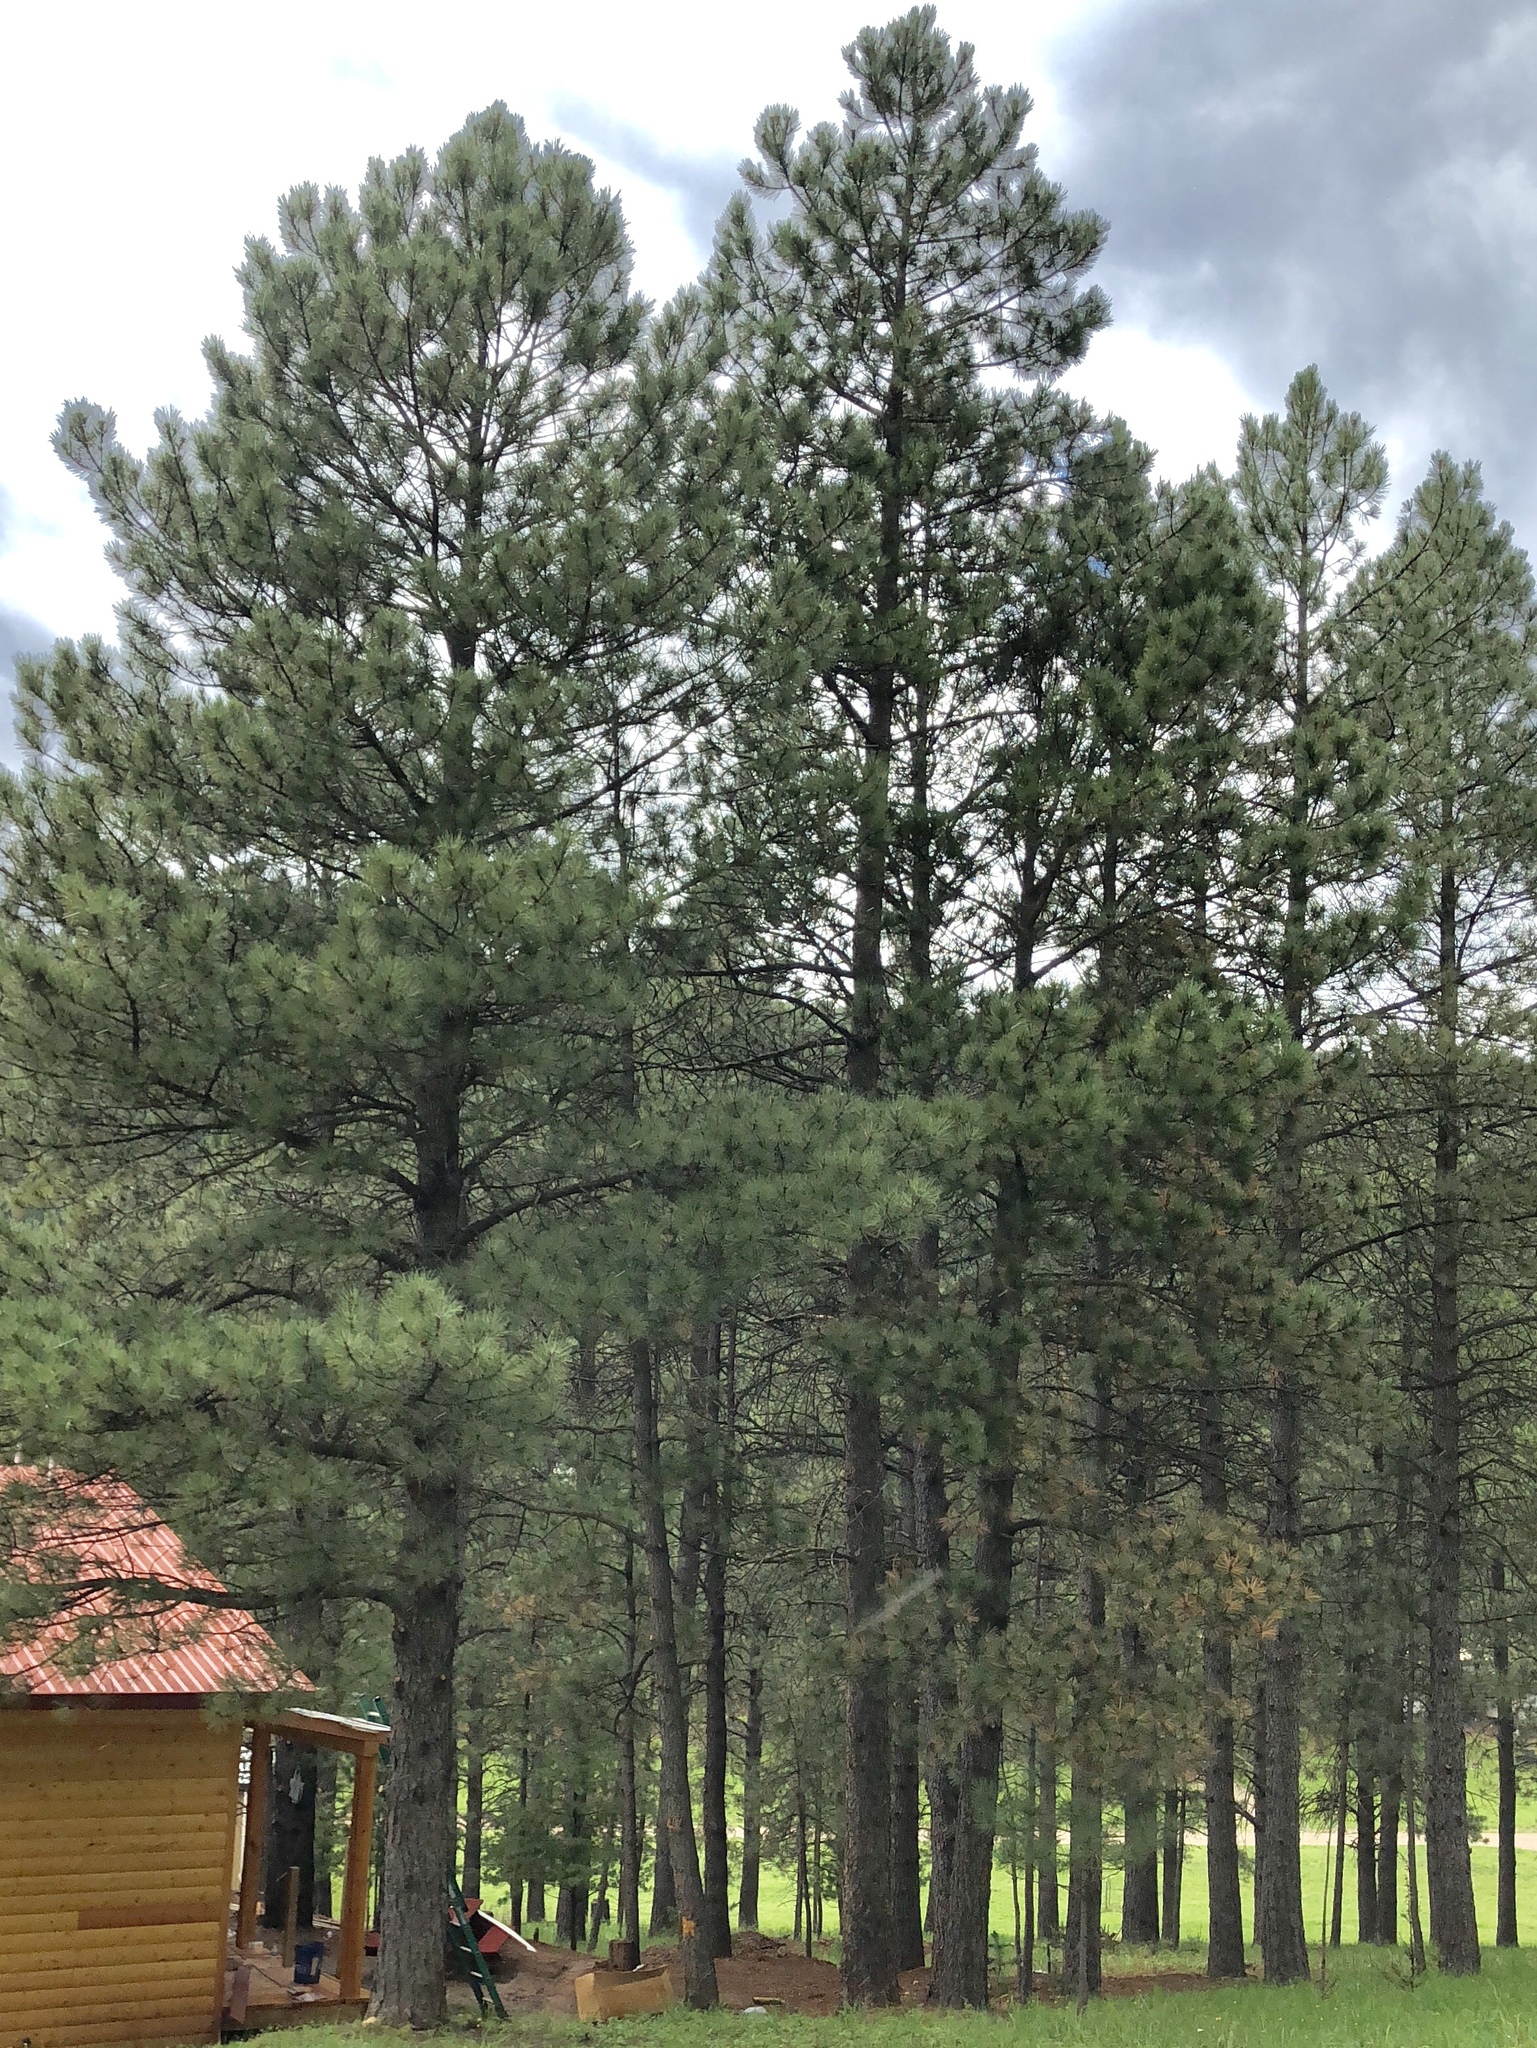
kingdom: Plantae
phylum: Tracheophyta
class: Pinopsida
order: Pinales
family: Pinaceae
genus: Pinus
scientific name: Pinus ponderosa
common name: Western yellow-pine
